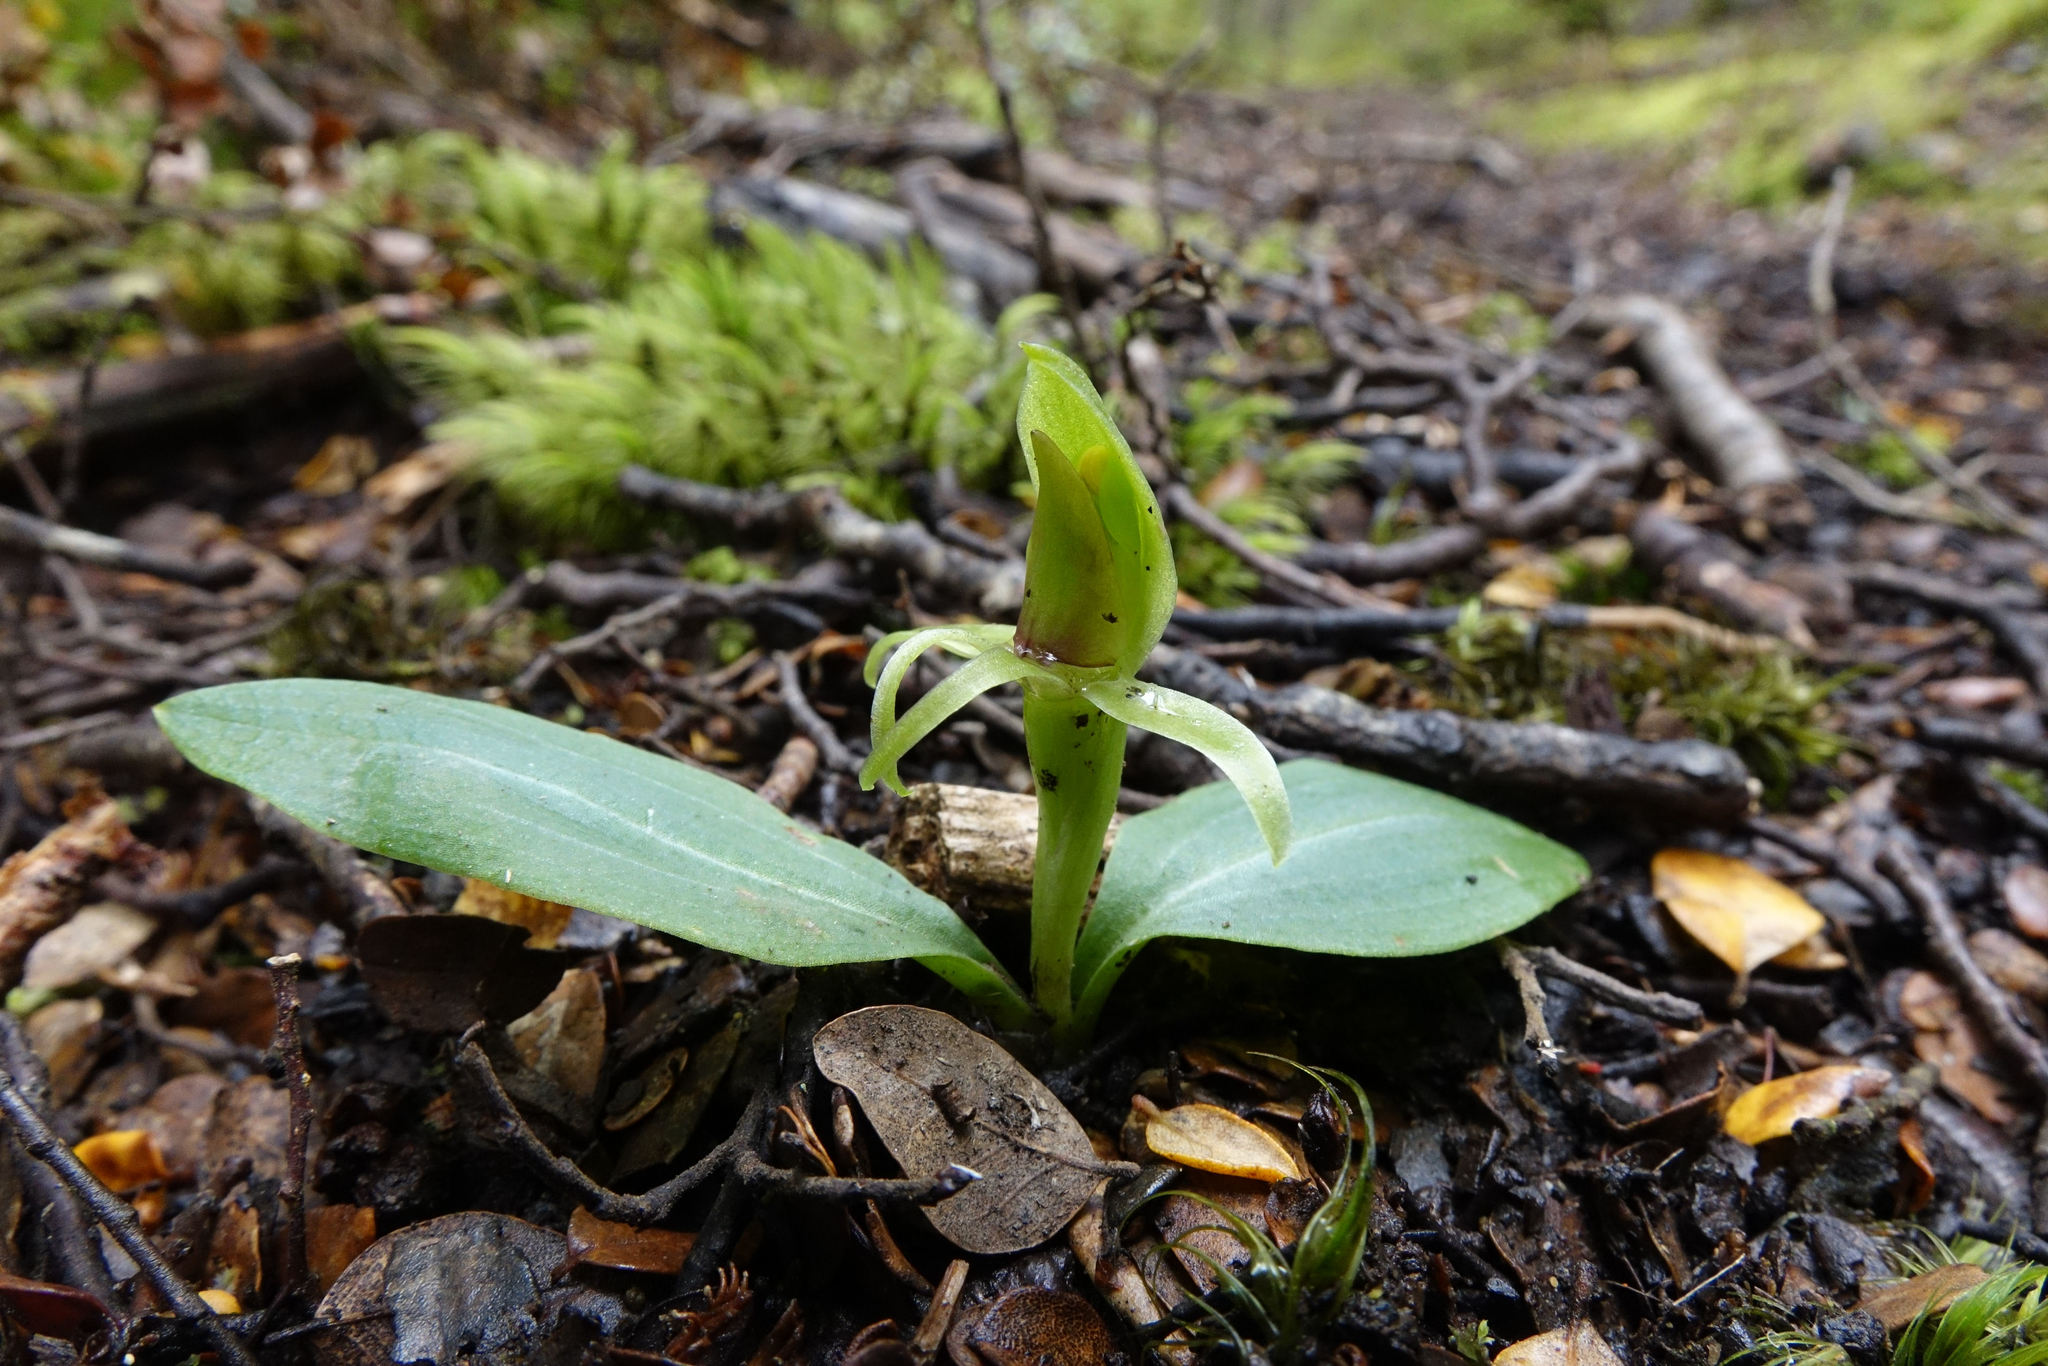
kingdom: Plantae
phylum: Tracheophyta
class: Liliopsida
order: Asparagales
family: Orchidaceae
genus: Chiloglottis
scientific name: Chiloglottis cornuta
